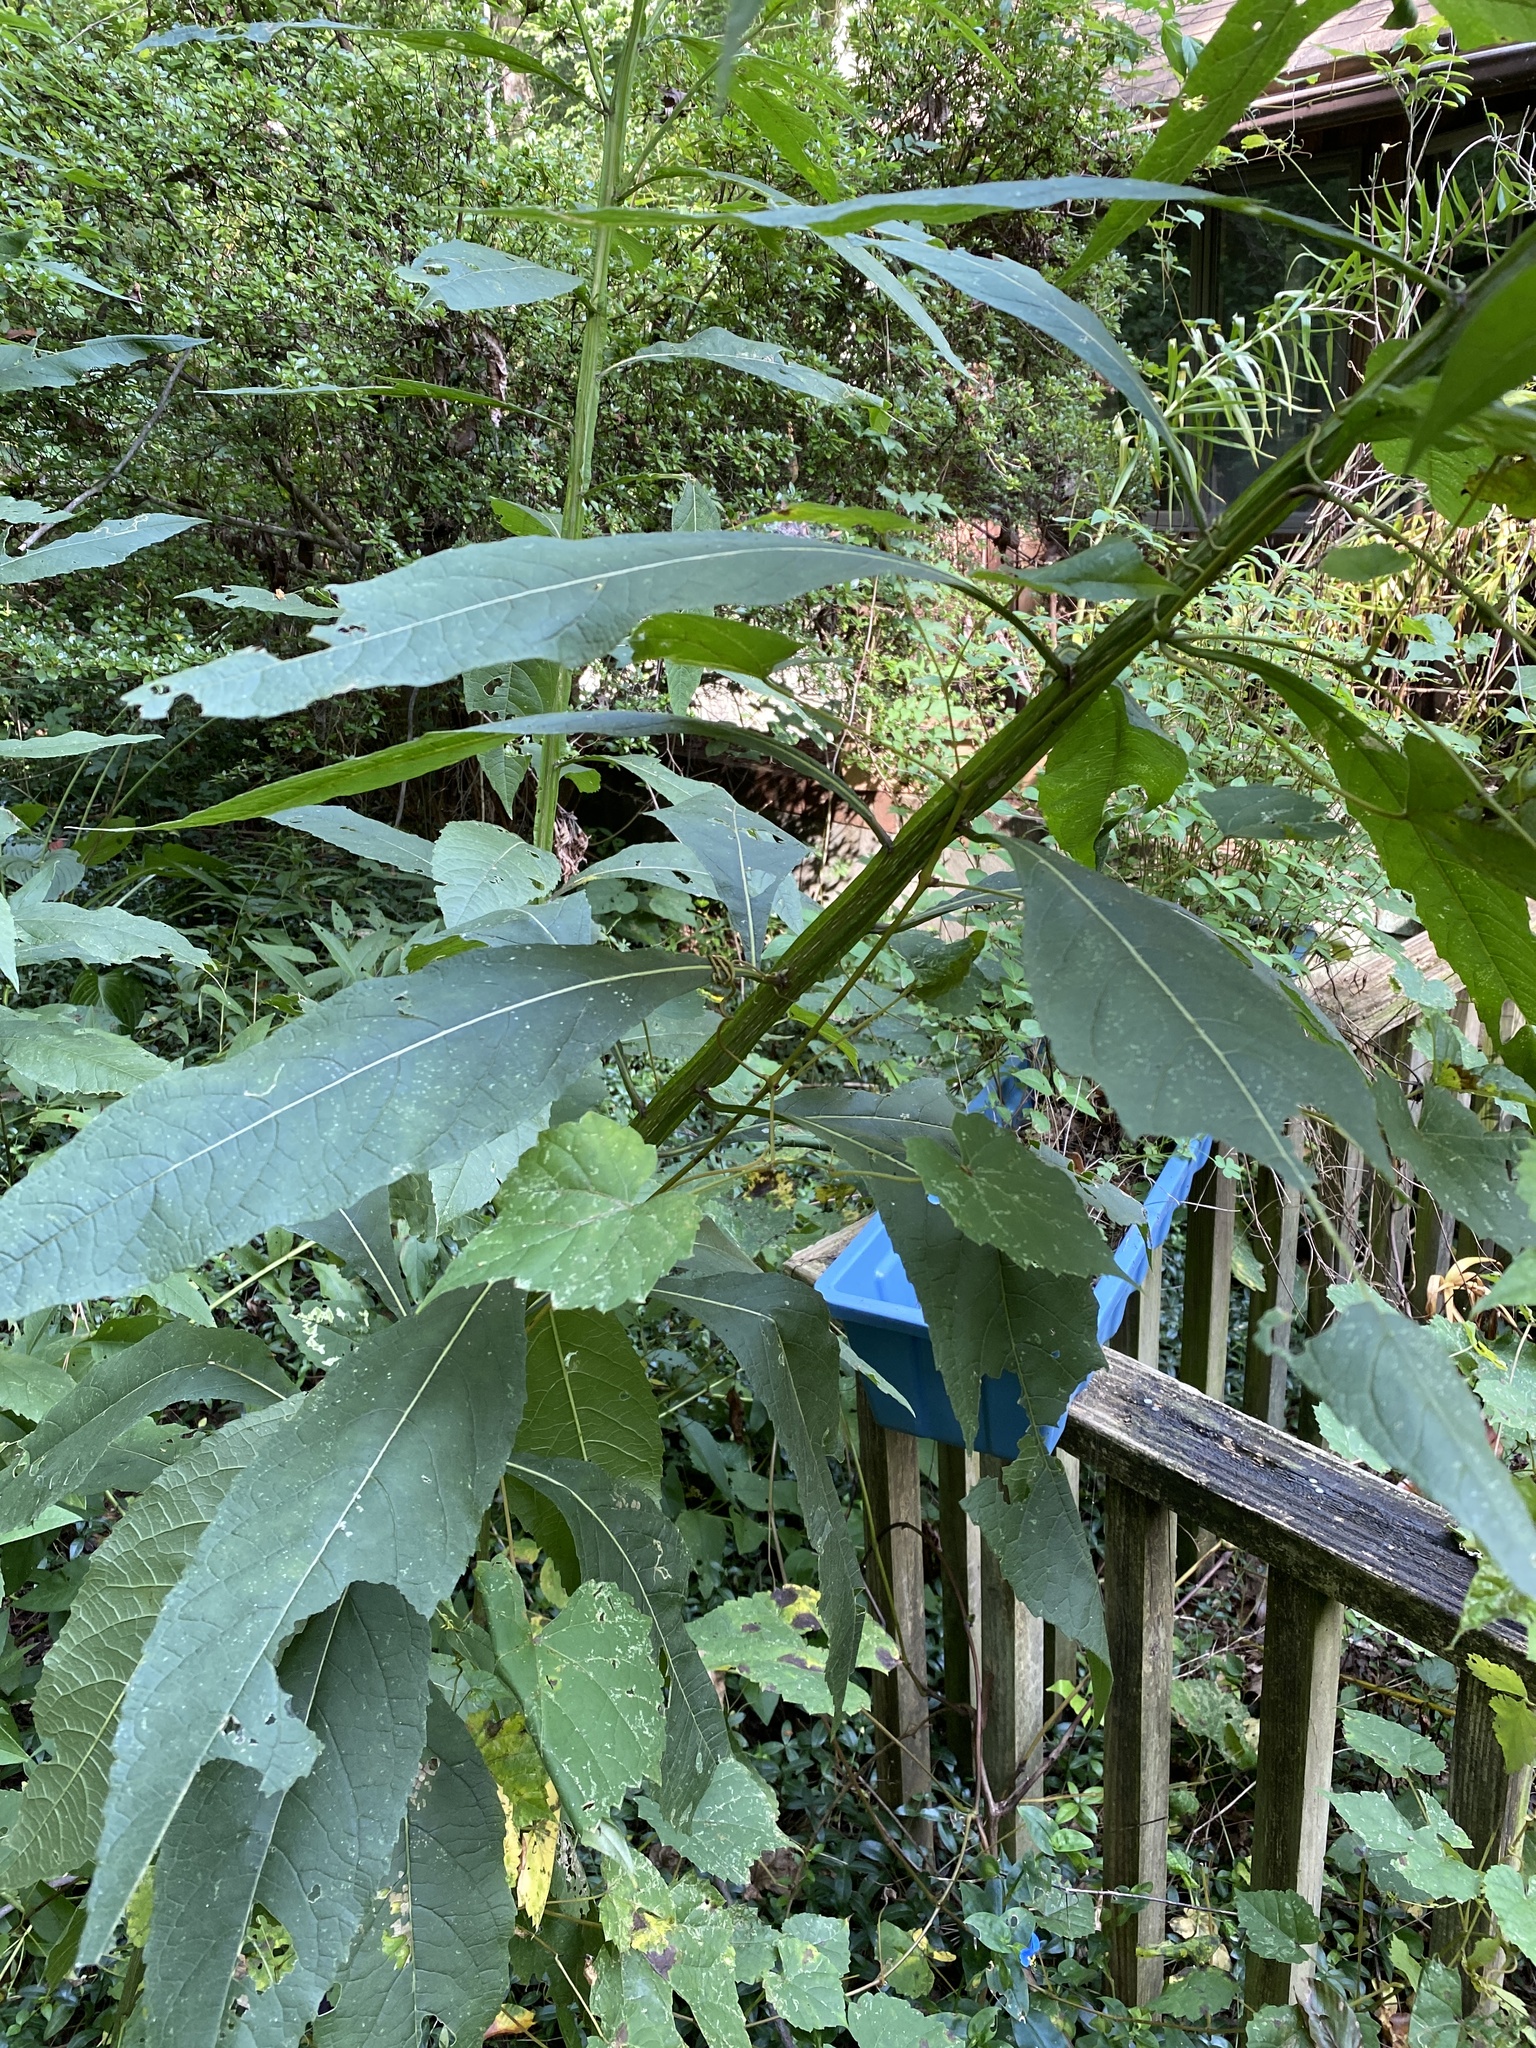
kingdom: Plantae
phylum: Tracheophyta
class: Magnoliopsida
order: Asterales
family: Asteraceae
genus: Verbesina
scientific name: Verbesina alternifolia
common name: Wingstem
